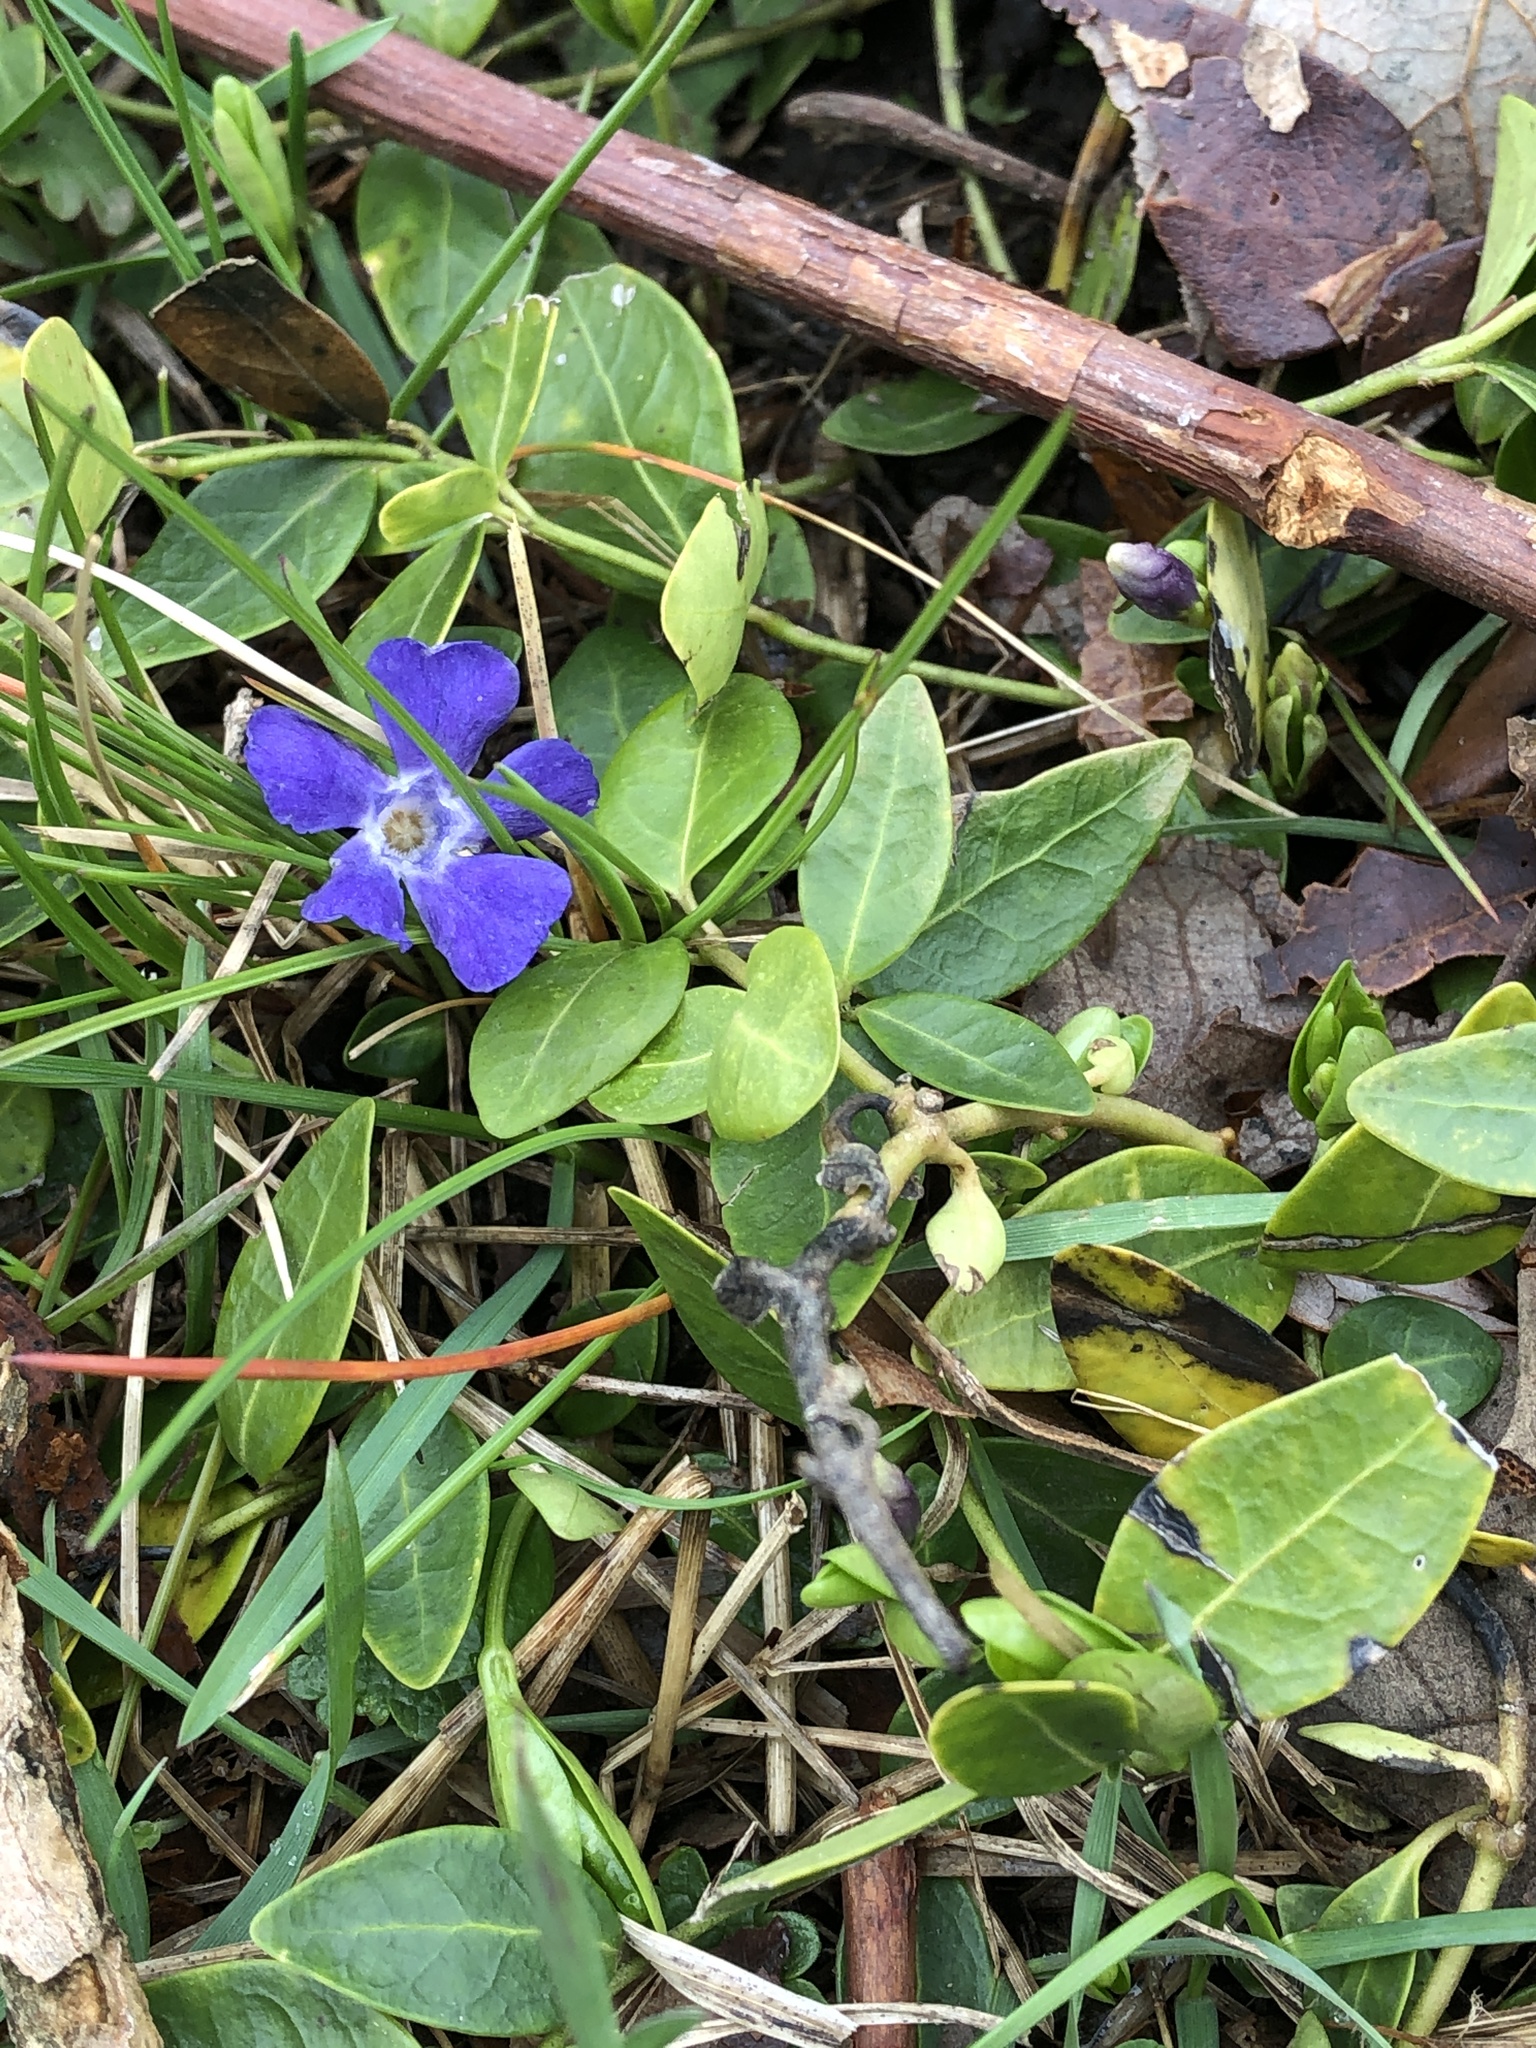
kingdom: Plantae
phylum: Tracheophyta
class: Magnoliopsida
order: Gentianales
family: Apocynaceae
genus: Vinca
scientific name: Vinca minor
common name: Lesser periwinkle
